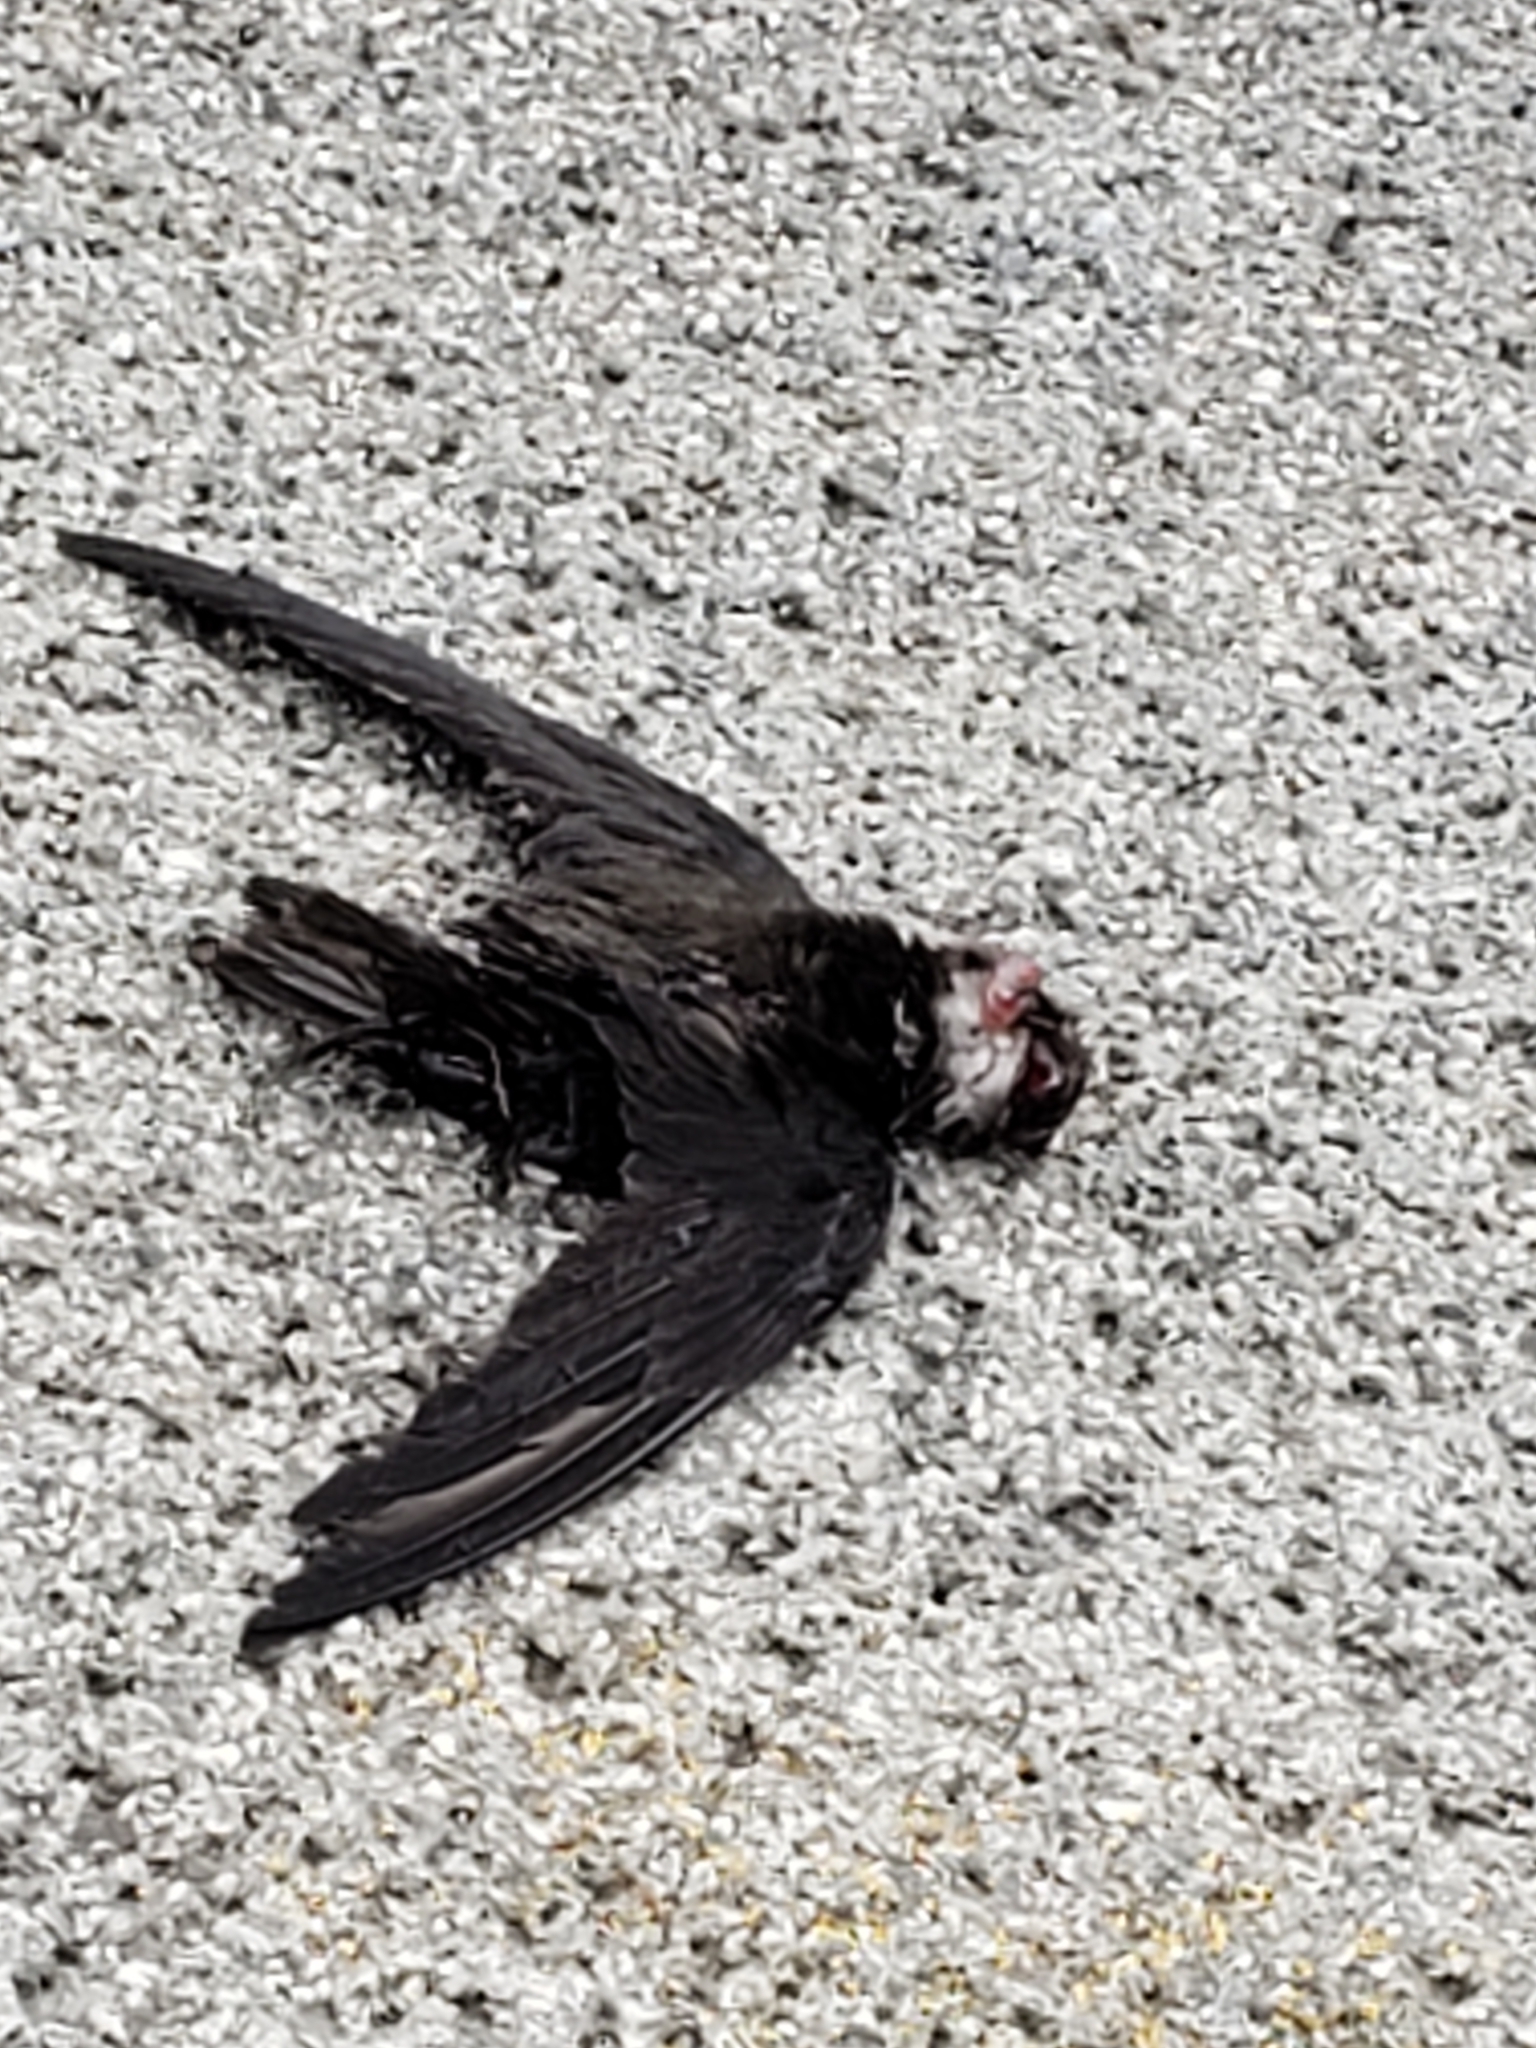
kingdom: Animalia
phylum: Chordata
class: Aves
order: Apodiformes
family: Apodidae
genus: Chaetura
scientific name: Chaetura pelagica
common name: Chimney swift
